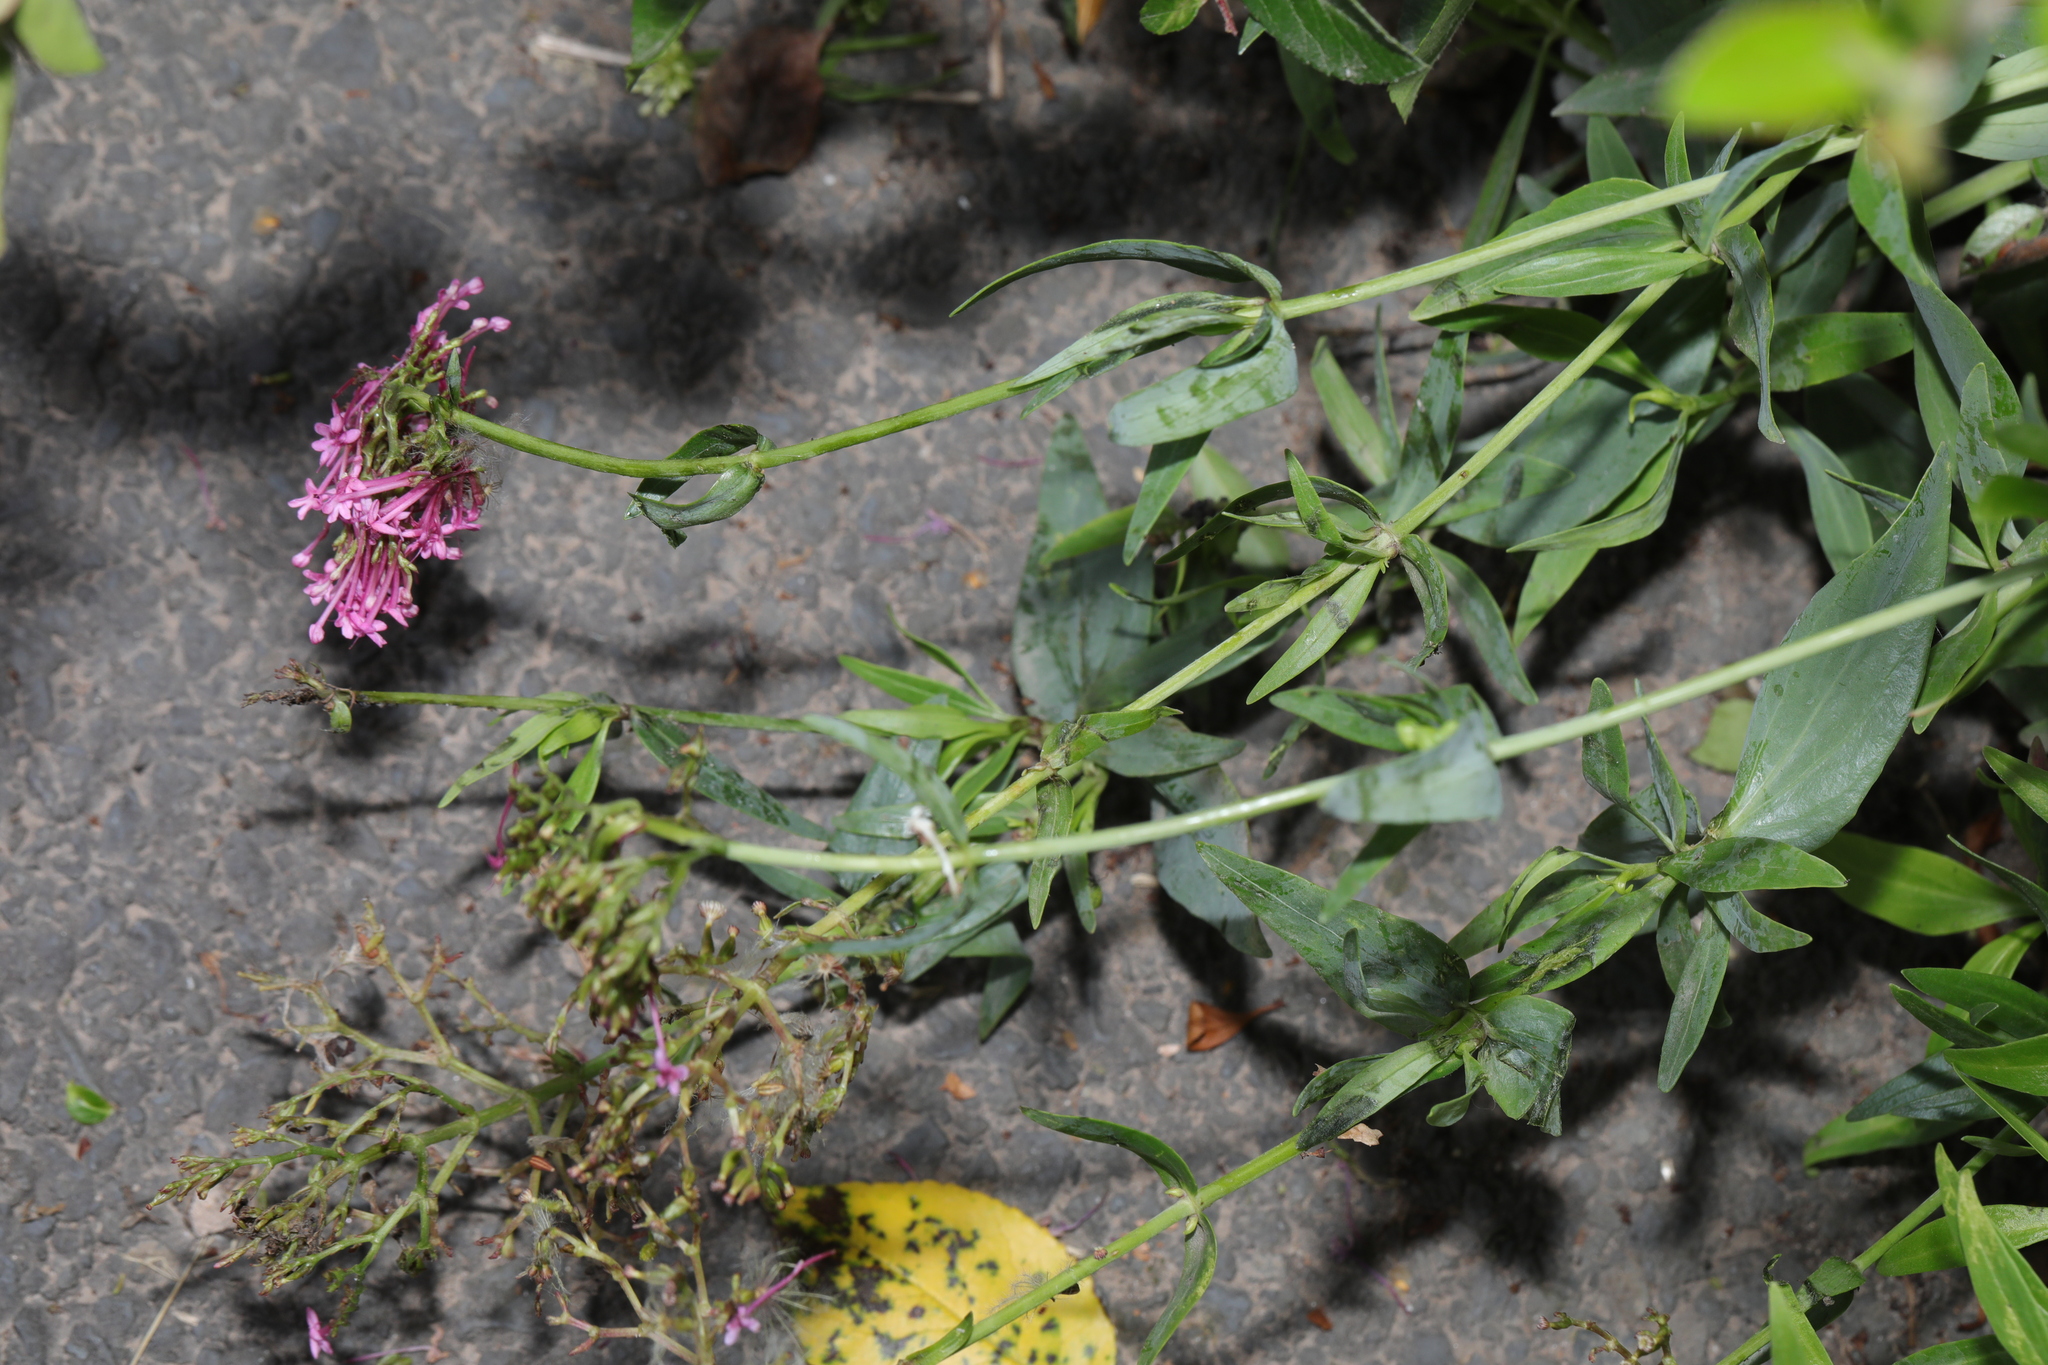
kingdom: Plantae
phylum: Tracheophyta
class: Magnoliopsida
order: Dipsacales
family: Caprifoliaceae
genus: Centranthus
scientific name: Centranthus ruber
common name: Red valerian
